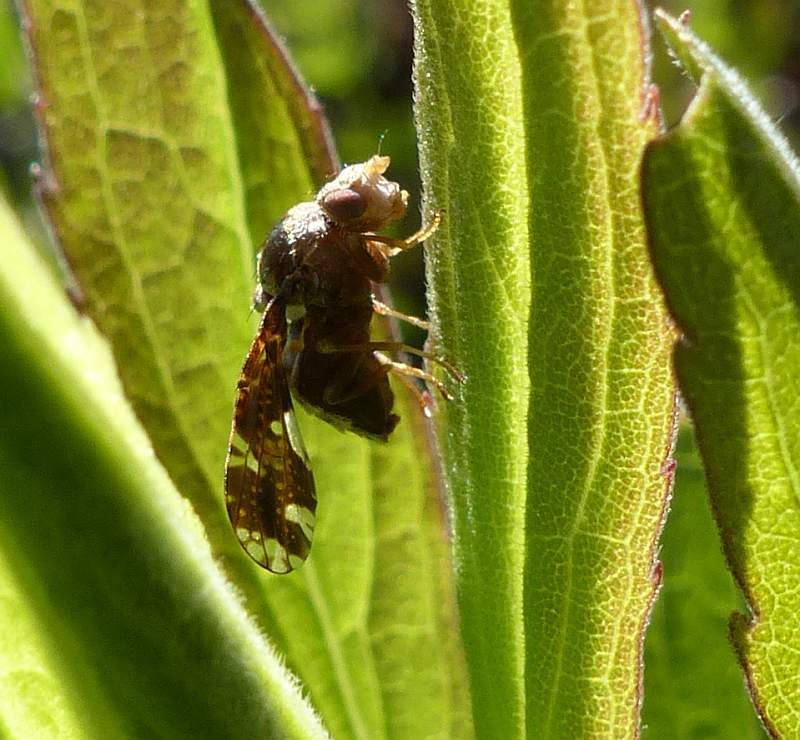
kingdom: Animalia
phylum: Arthropoda
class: Insecta
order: Diptera
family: Tephritidae
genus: Eurosta
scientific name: Eurosta solidaginis
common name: Goldenrod gall fly
